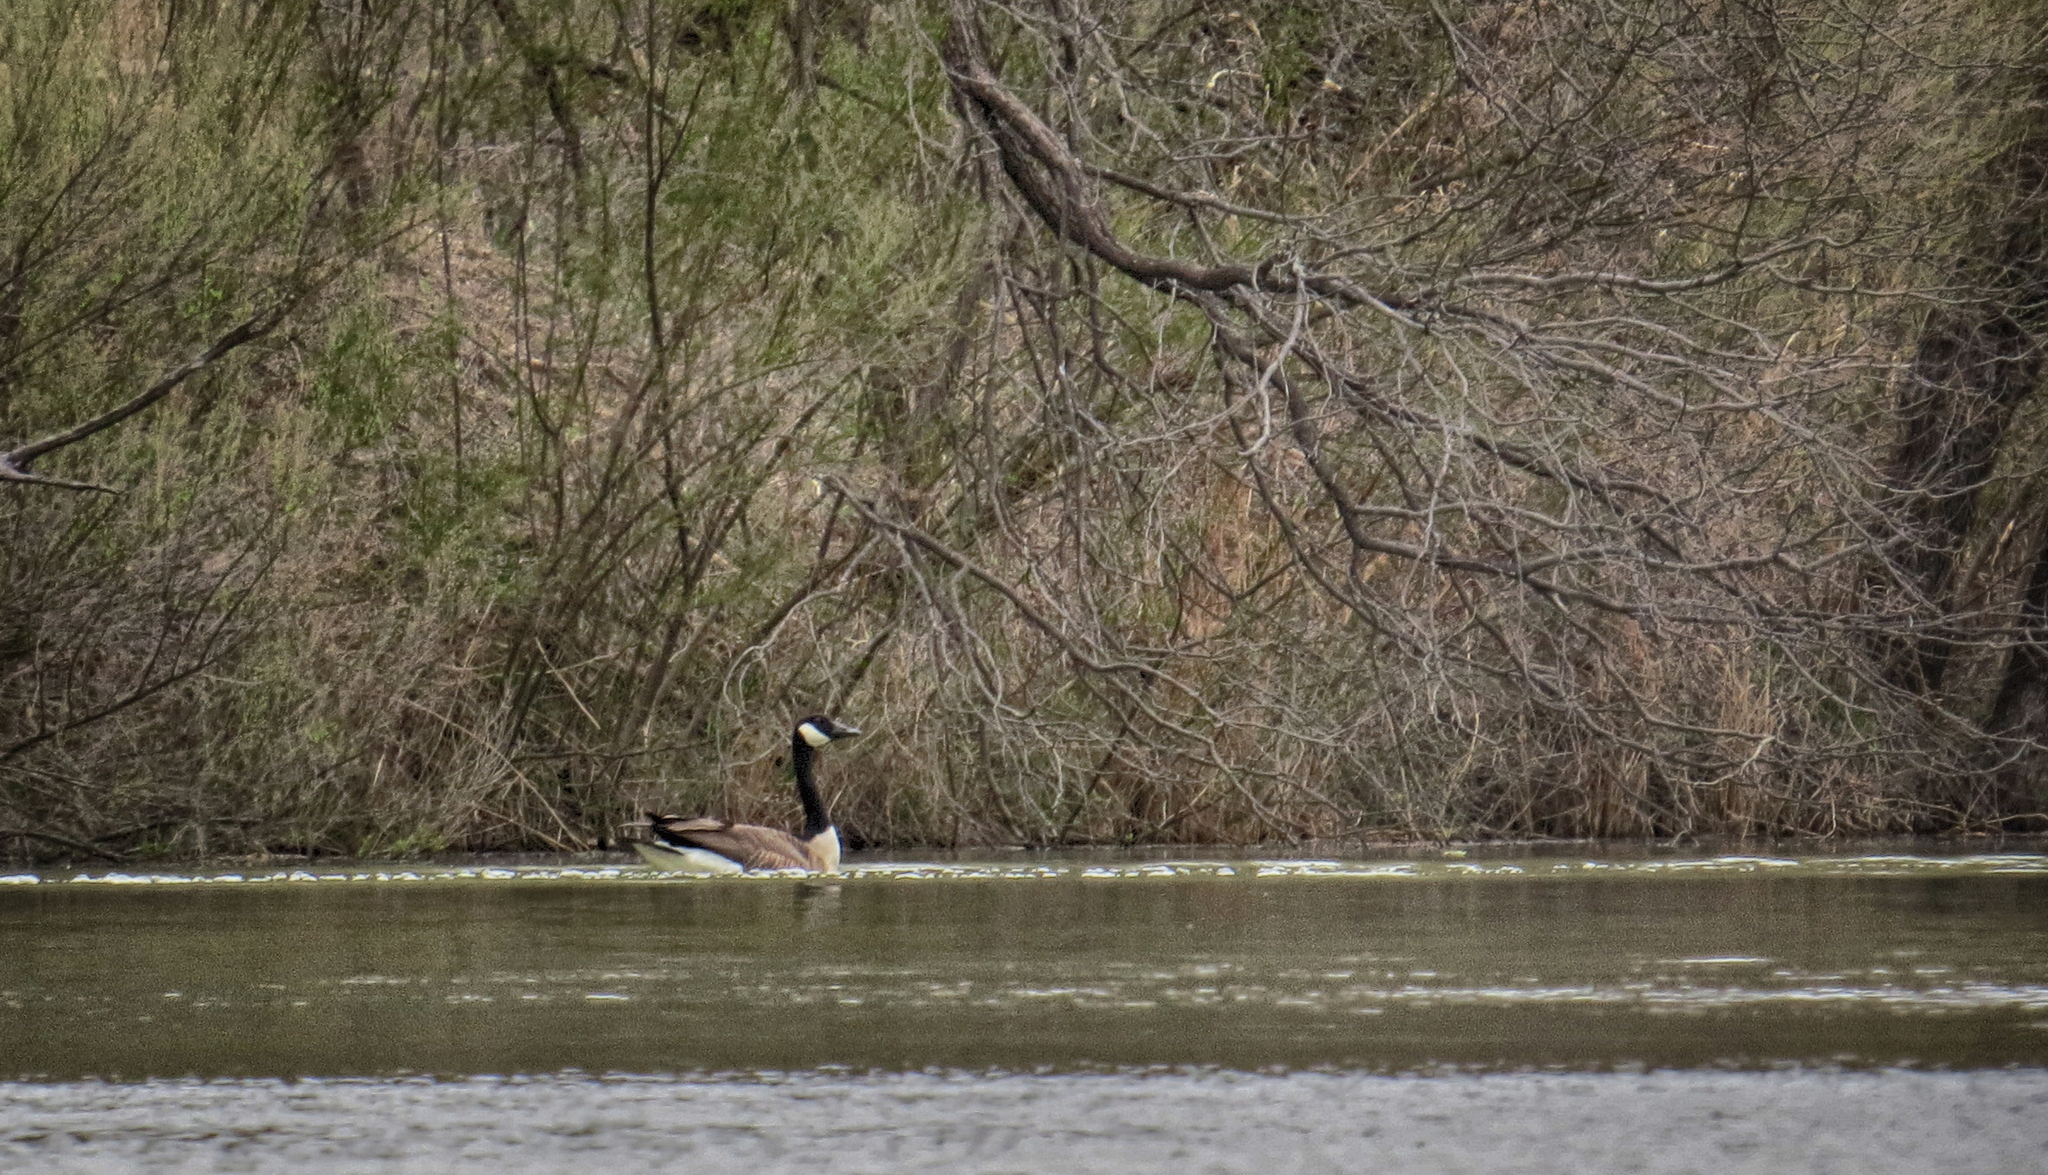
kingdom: Animalia
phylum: Chordata
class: Aves
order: Anseriformes
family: Anatidae
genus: Branta
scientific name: Branta canadensis
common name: Canada goose
